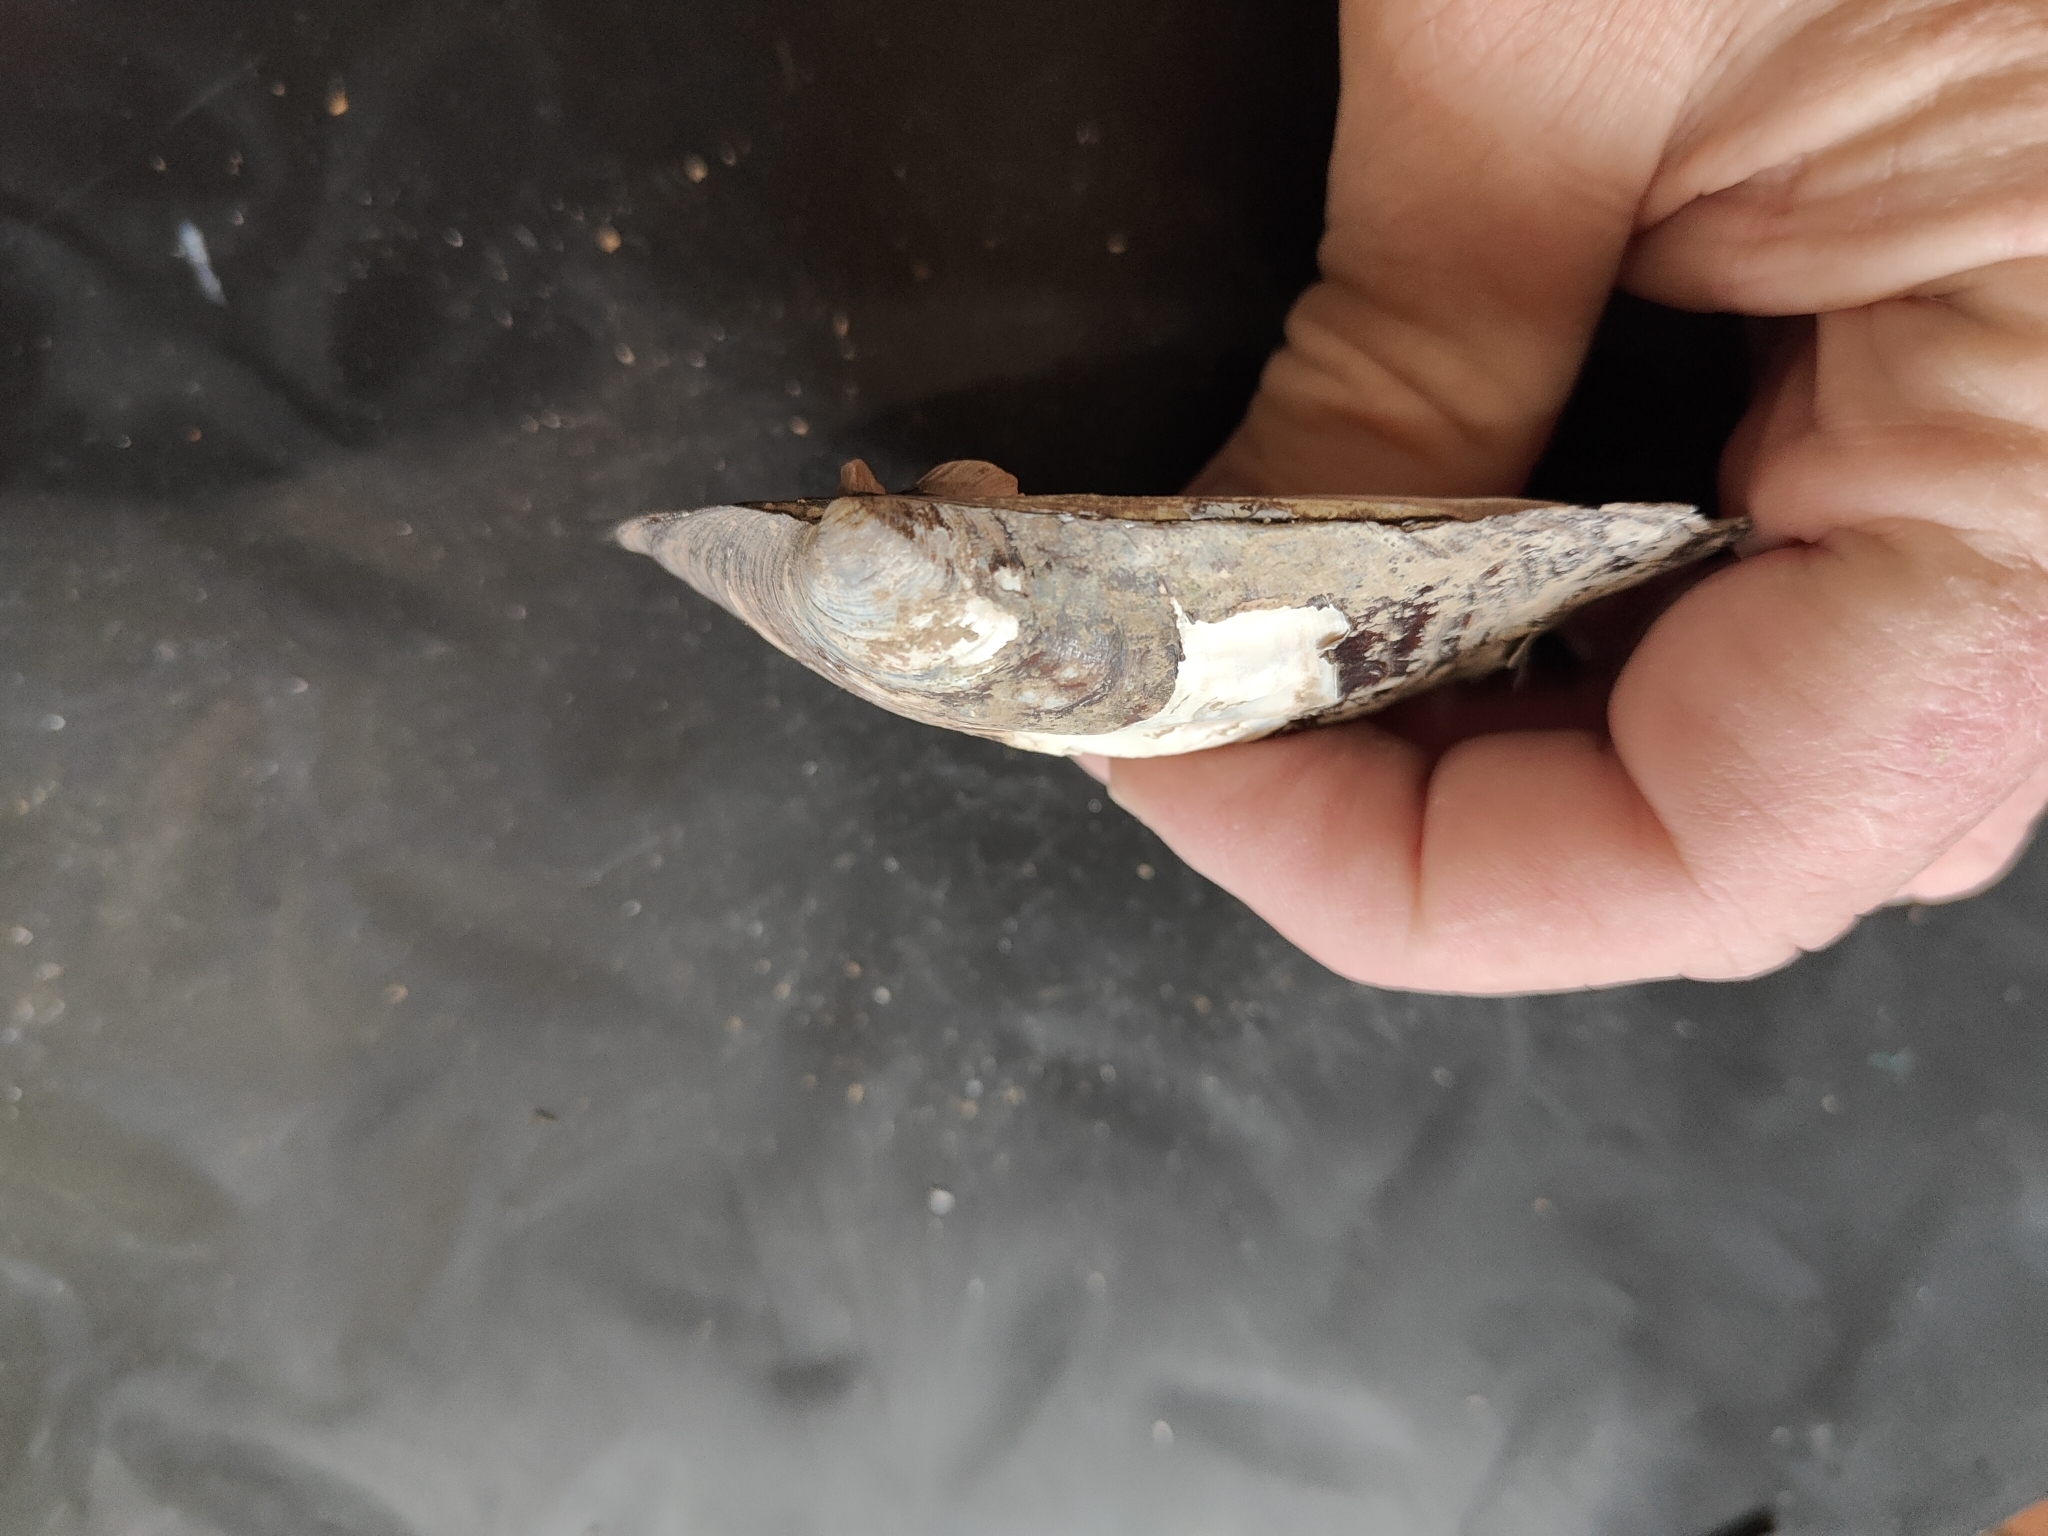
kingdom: Animalia
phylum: Mollusca
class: Bivalvia
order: Unionida
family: Unionidae
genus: Amblema
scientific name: Amblema plicata
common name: Threeridge
